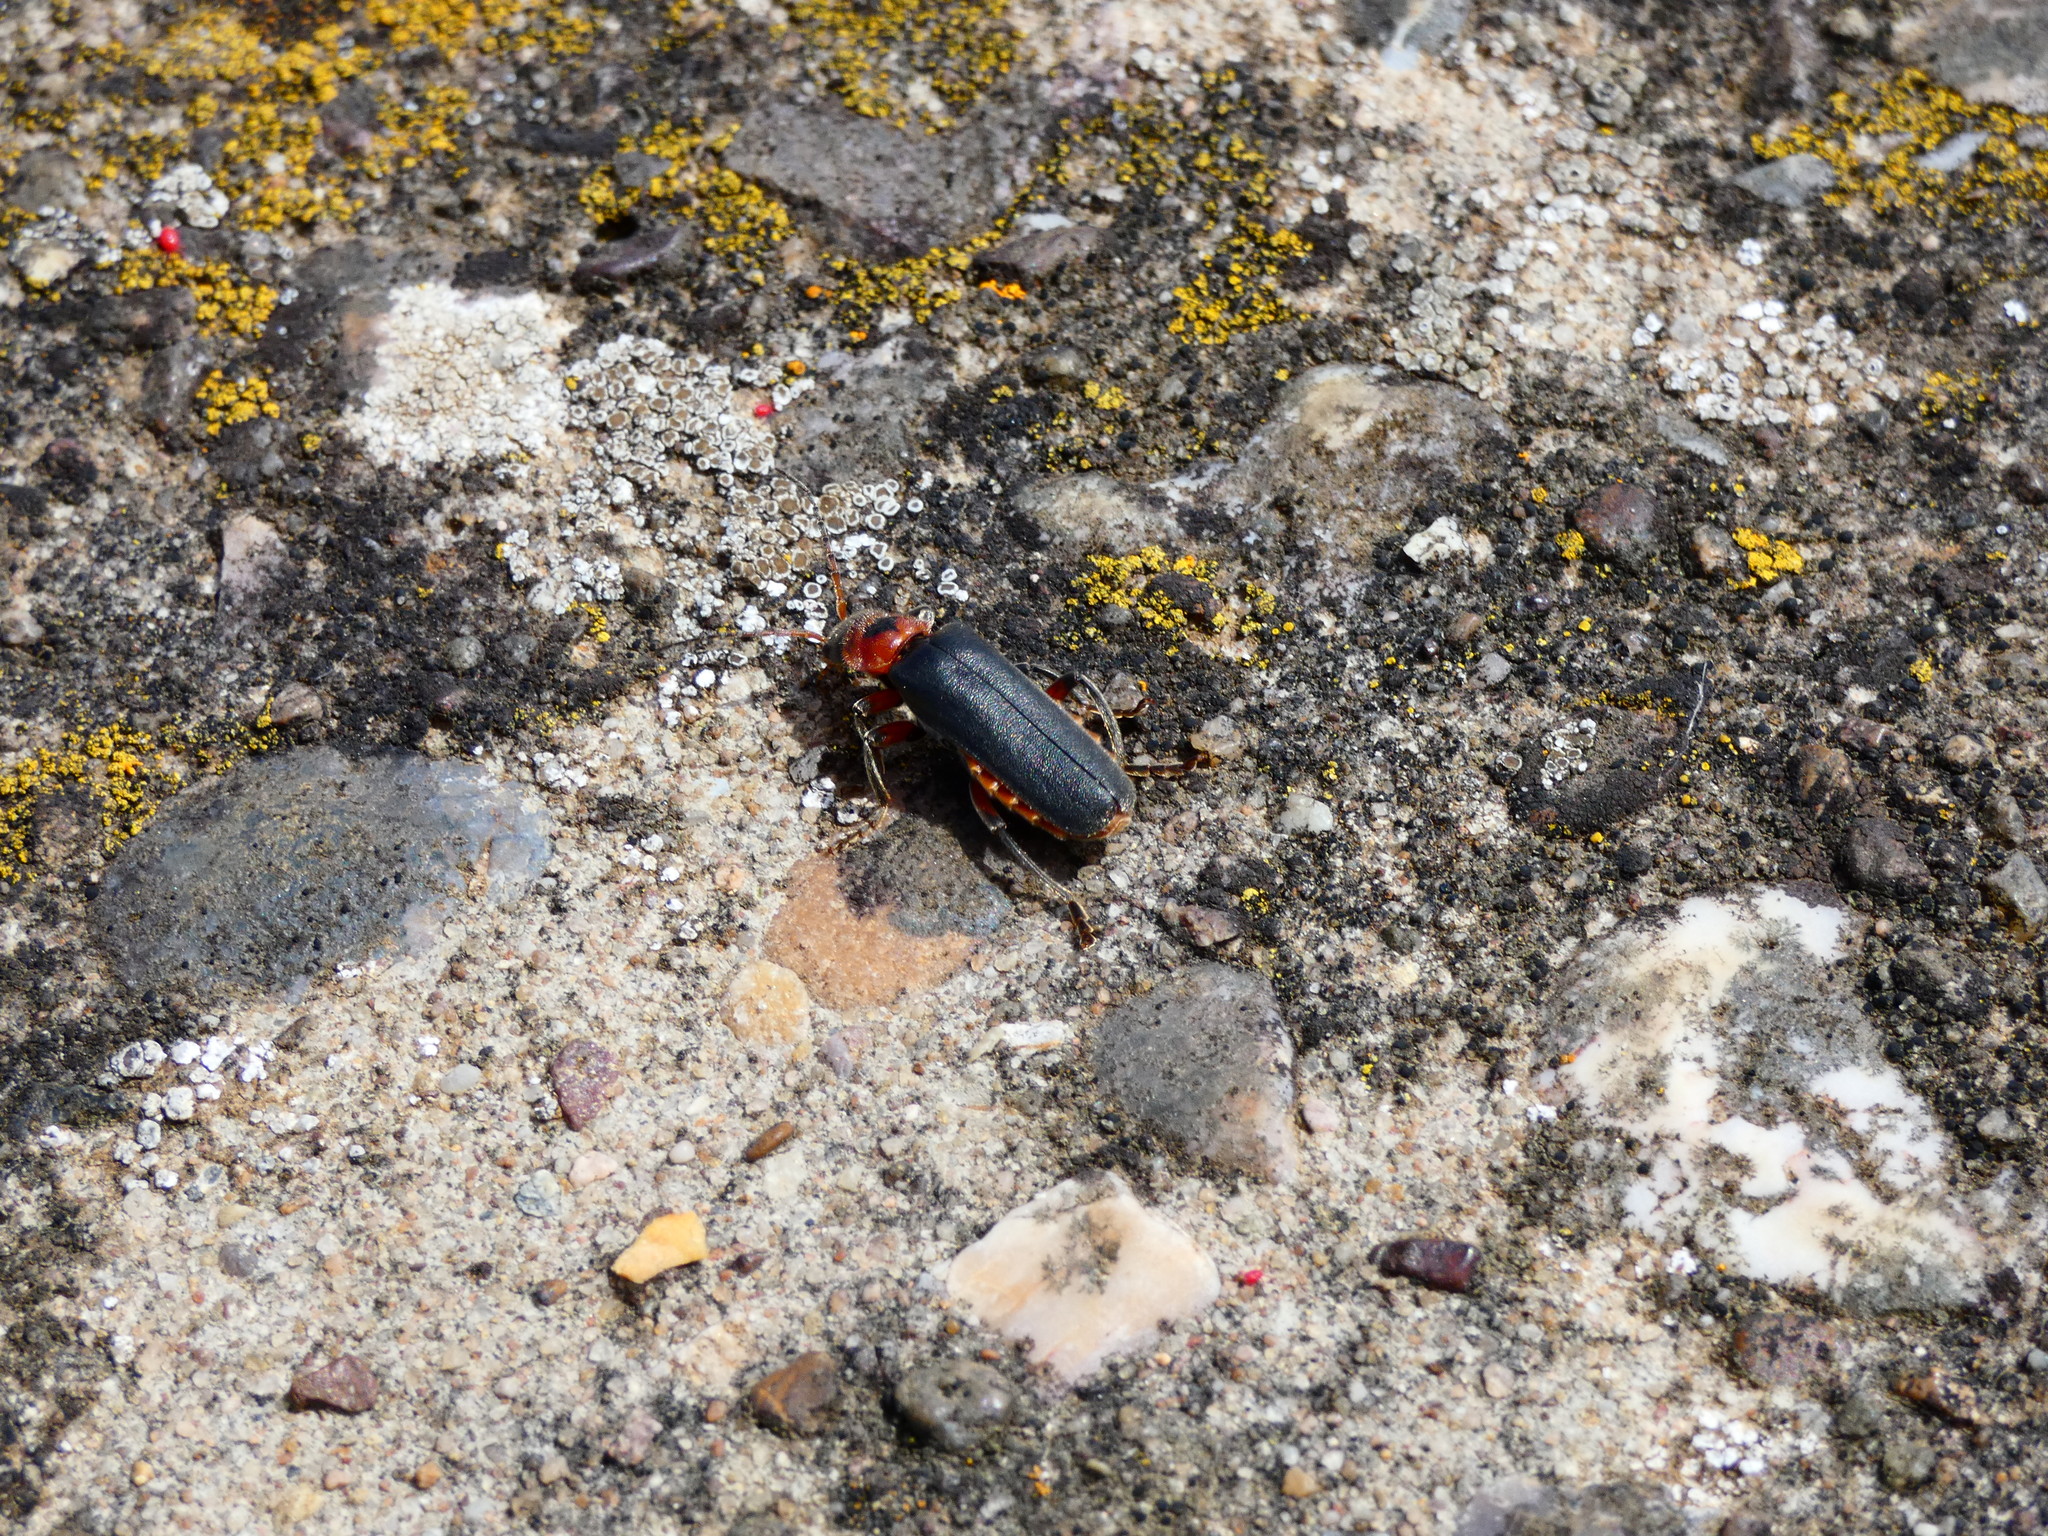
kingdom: Animalia
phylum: Arthropoda
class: Insecta
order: Coleoptera
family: Cantharidae
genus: Cantharis
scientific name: Cantharis rustica
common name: Soldier beetle
